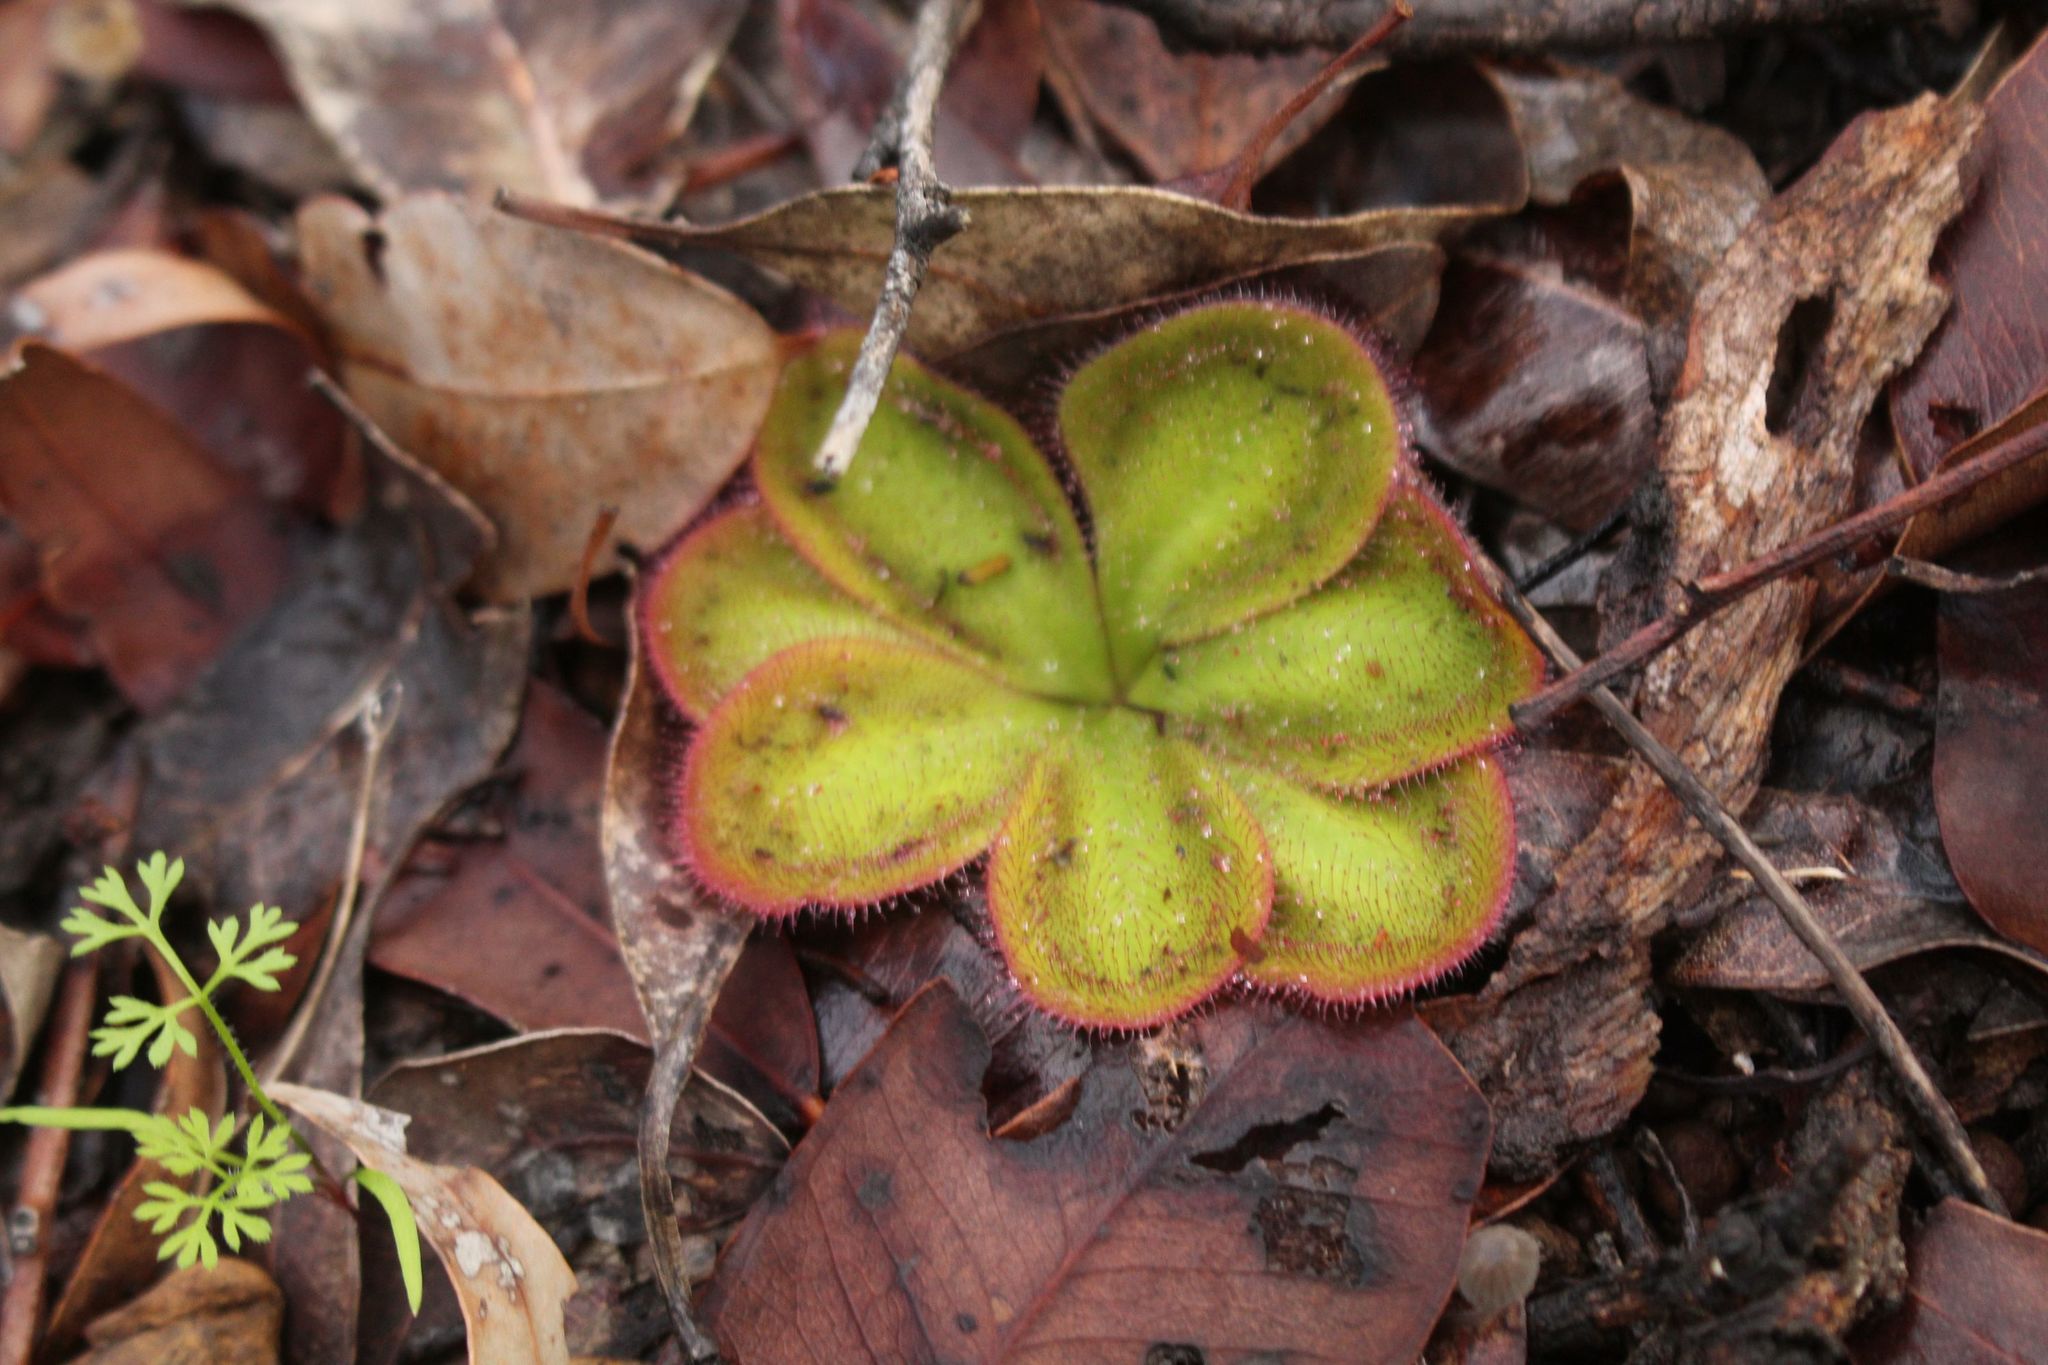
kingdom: Plantae
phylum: Tracheophyta
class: Magnoliopsida
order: Caryophyllales
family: Droseraceae
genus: Drosera
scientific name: Drosera erythrorhiza
